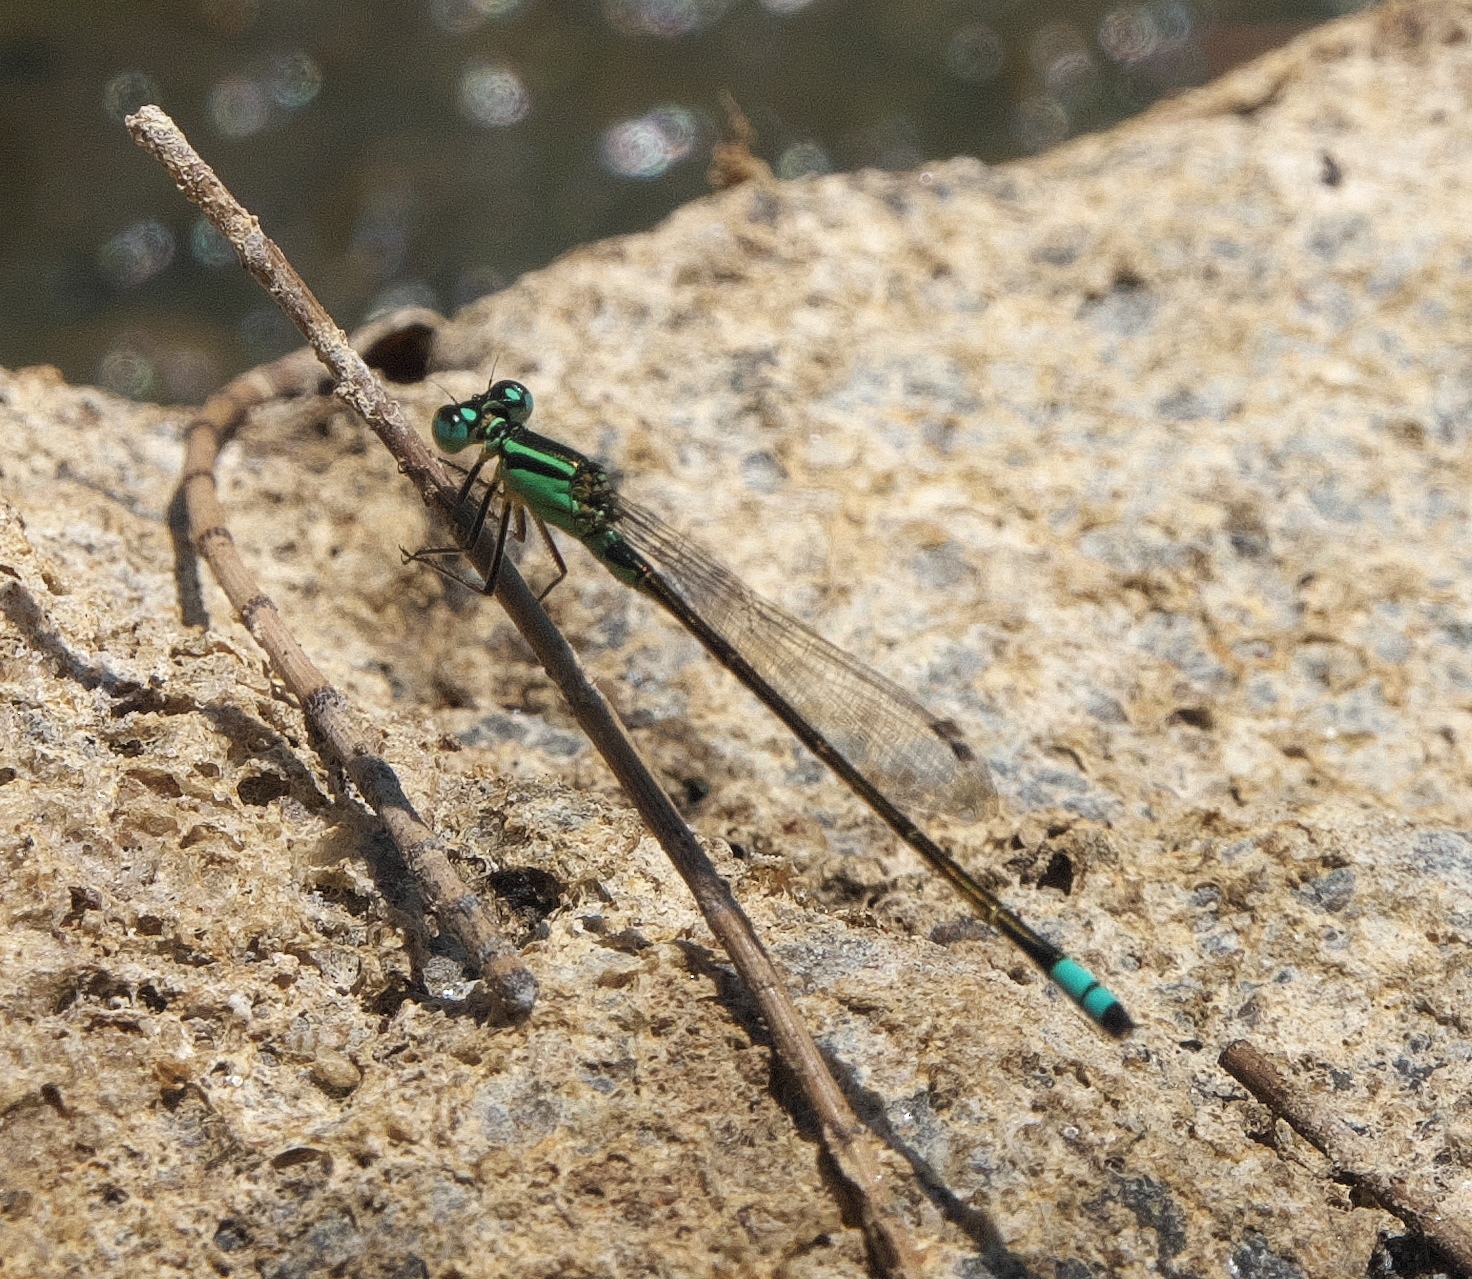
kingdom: Animalia
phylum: Arthropoda
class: Insecta
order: Odonata
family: Coenagrionidae
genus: Ischnura
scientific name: Ischnura heterosticta
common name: Common bluetail
